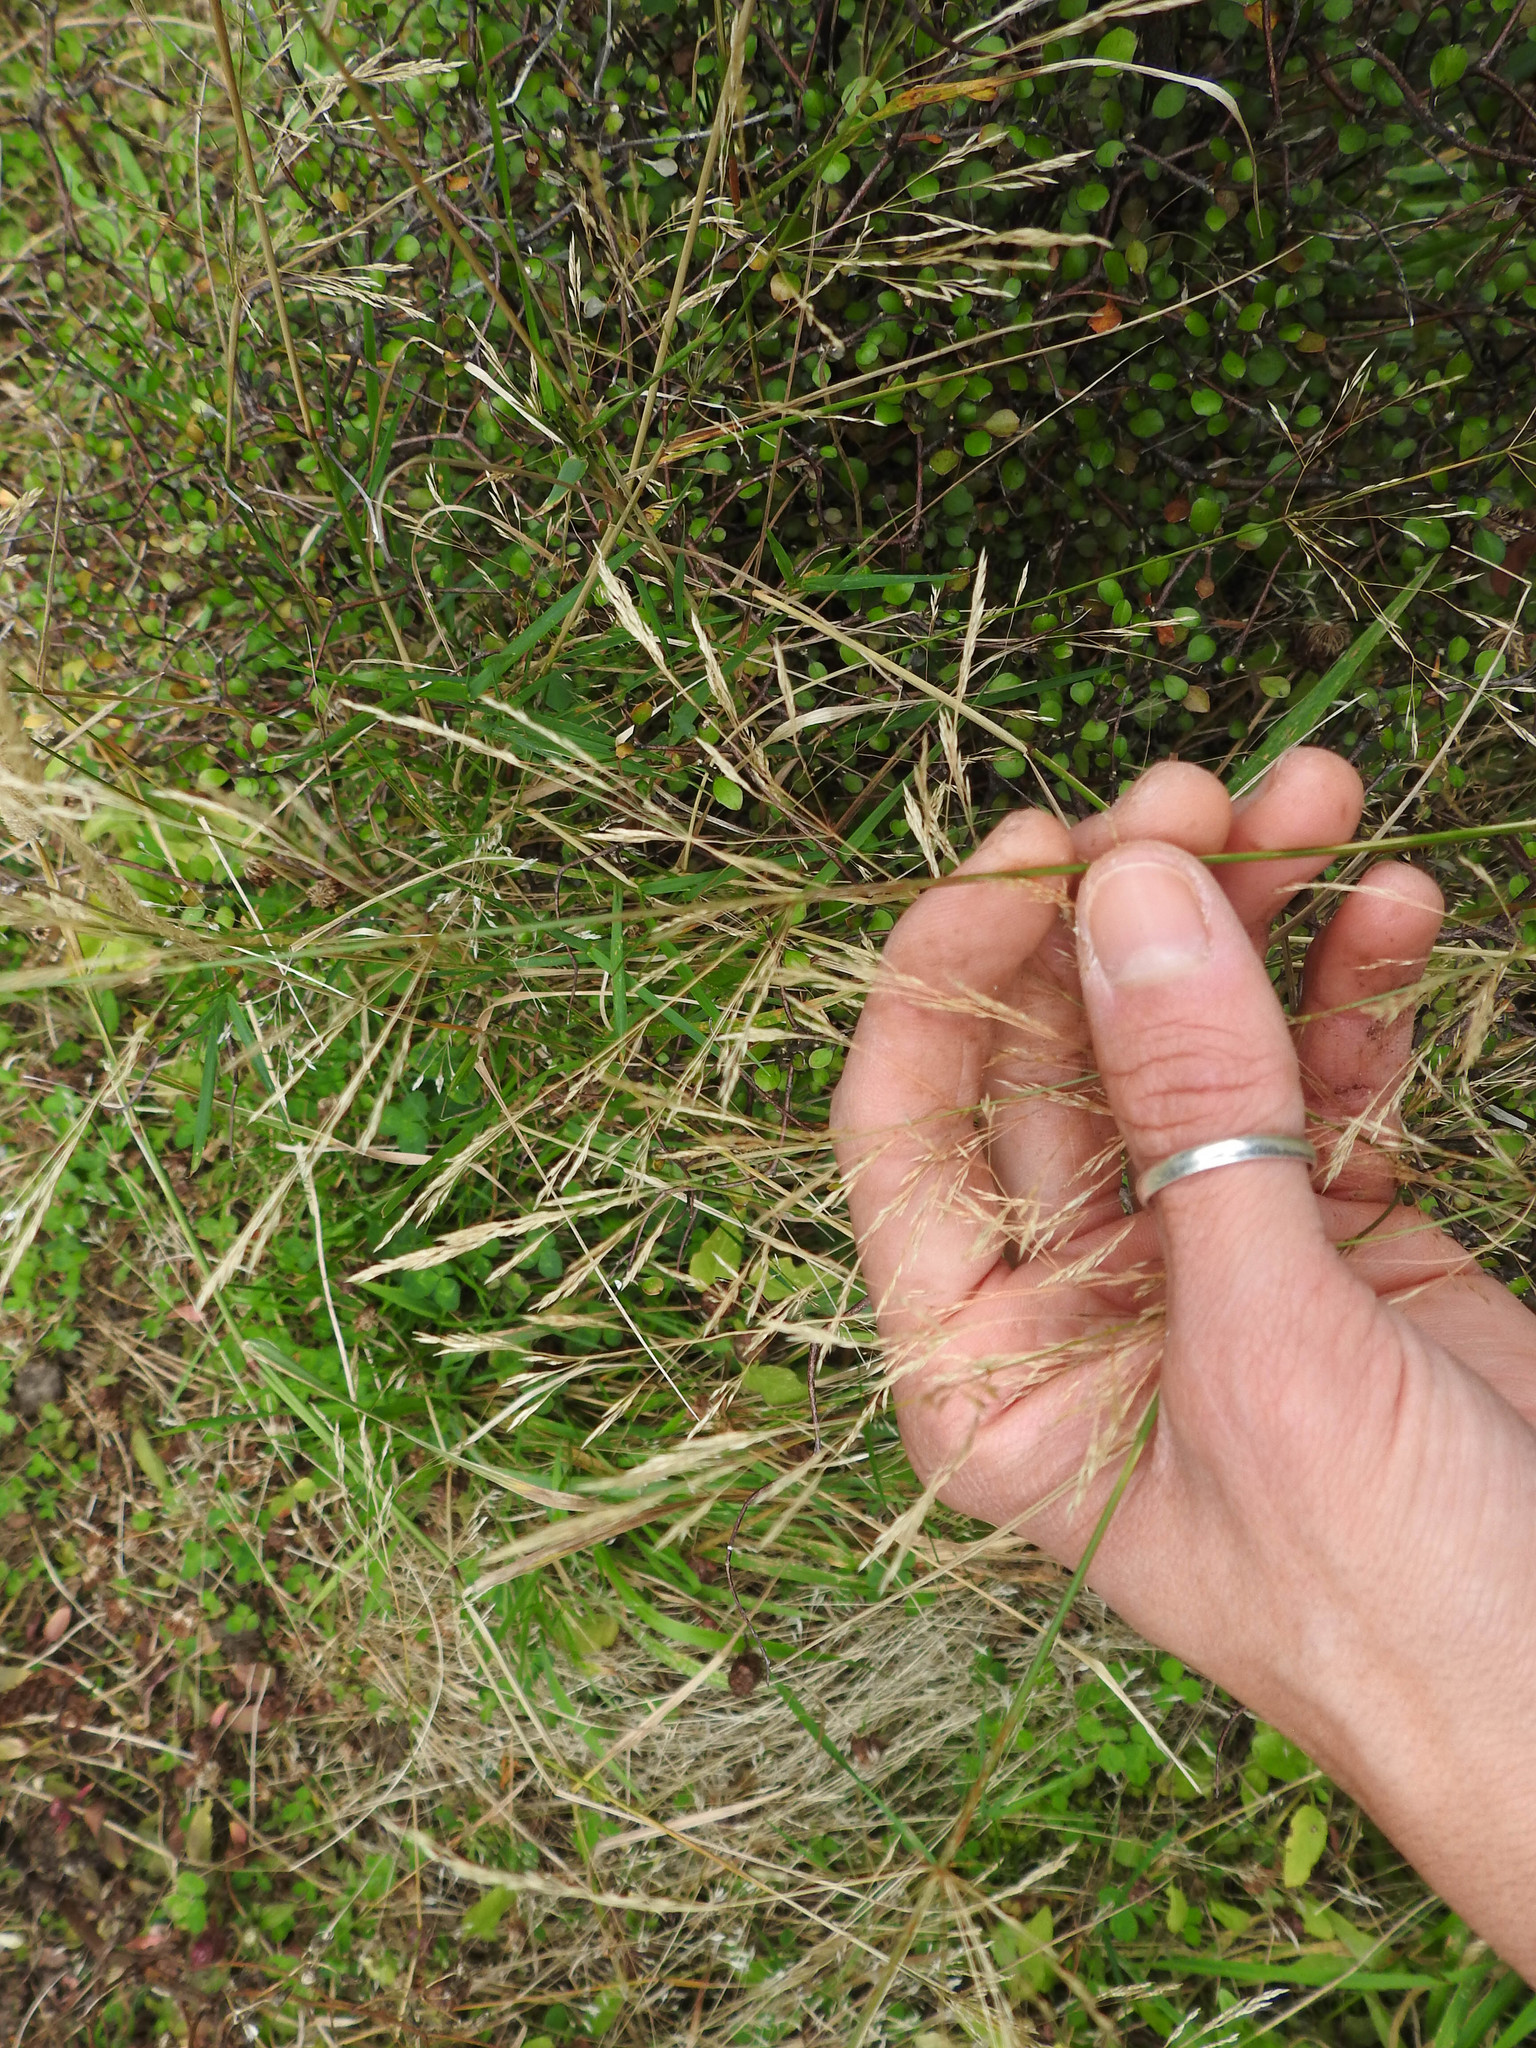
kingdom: Plantae
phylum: Tracheophyta
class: Liliopsida
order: Poales
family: Poaceae
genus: Agrostis
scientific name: Agrostis capillaris
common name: Colonial bentgrass
